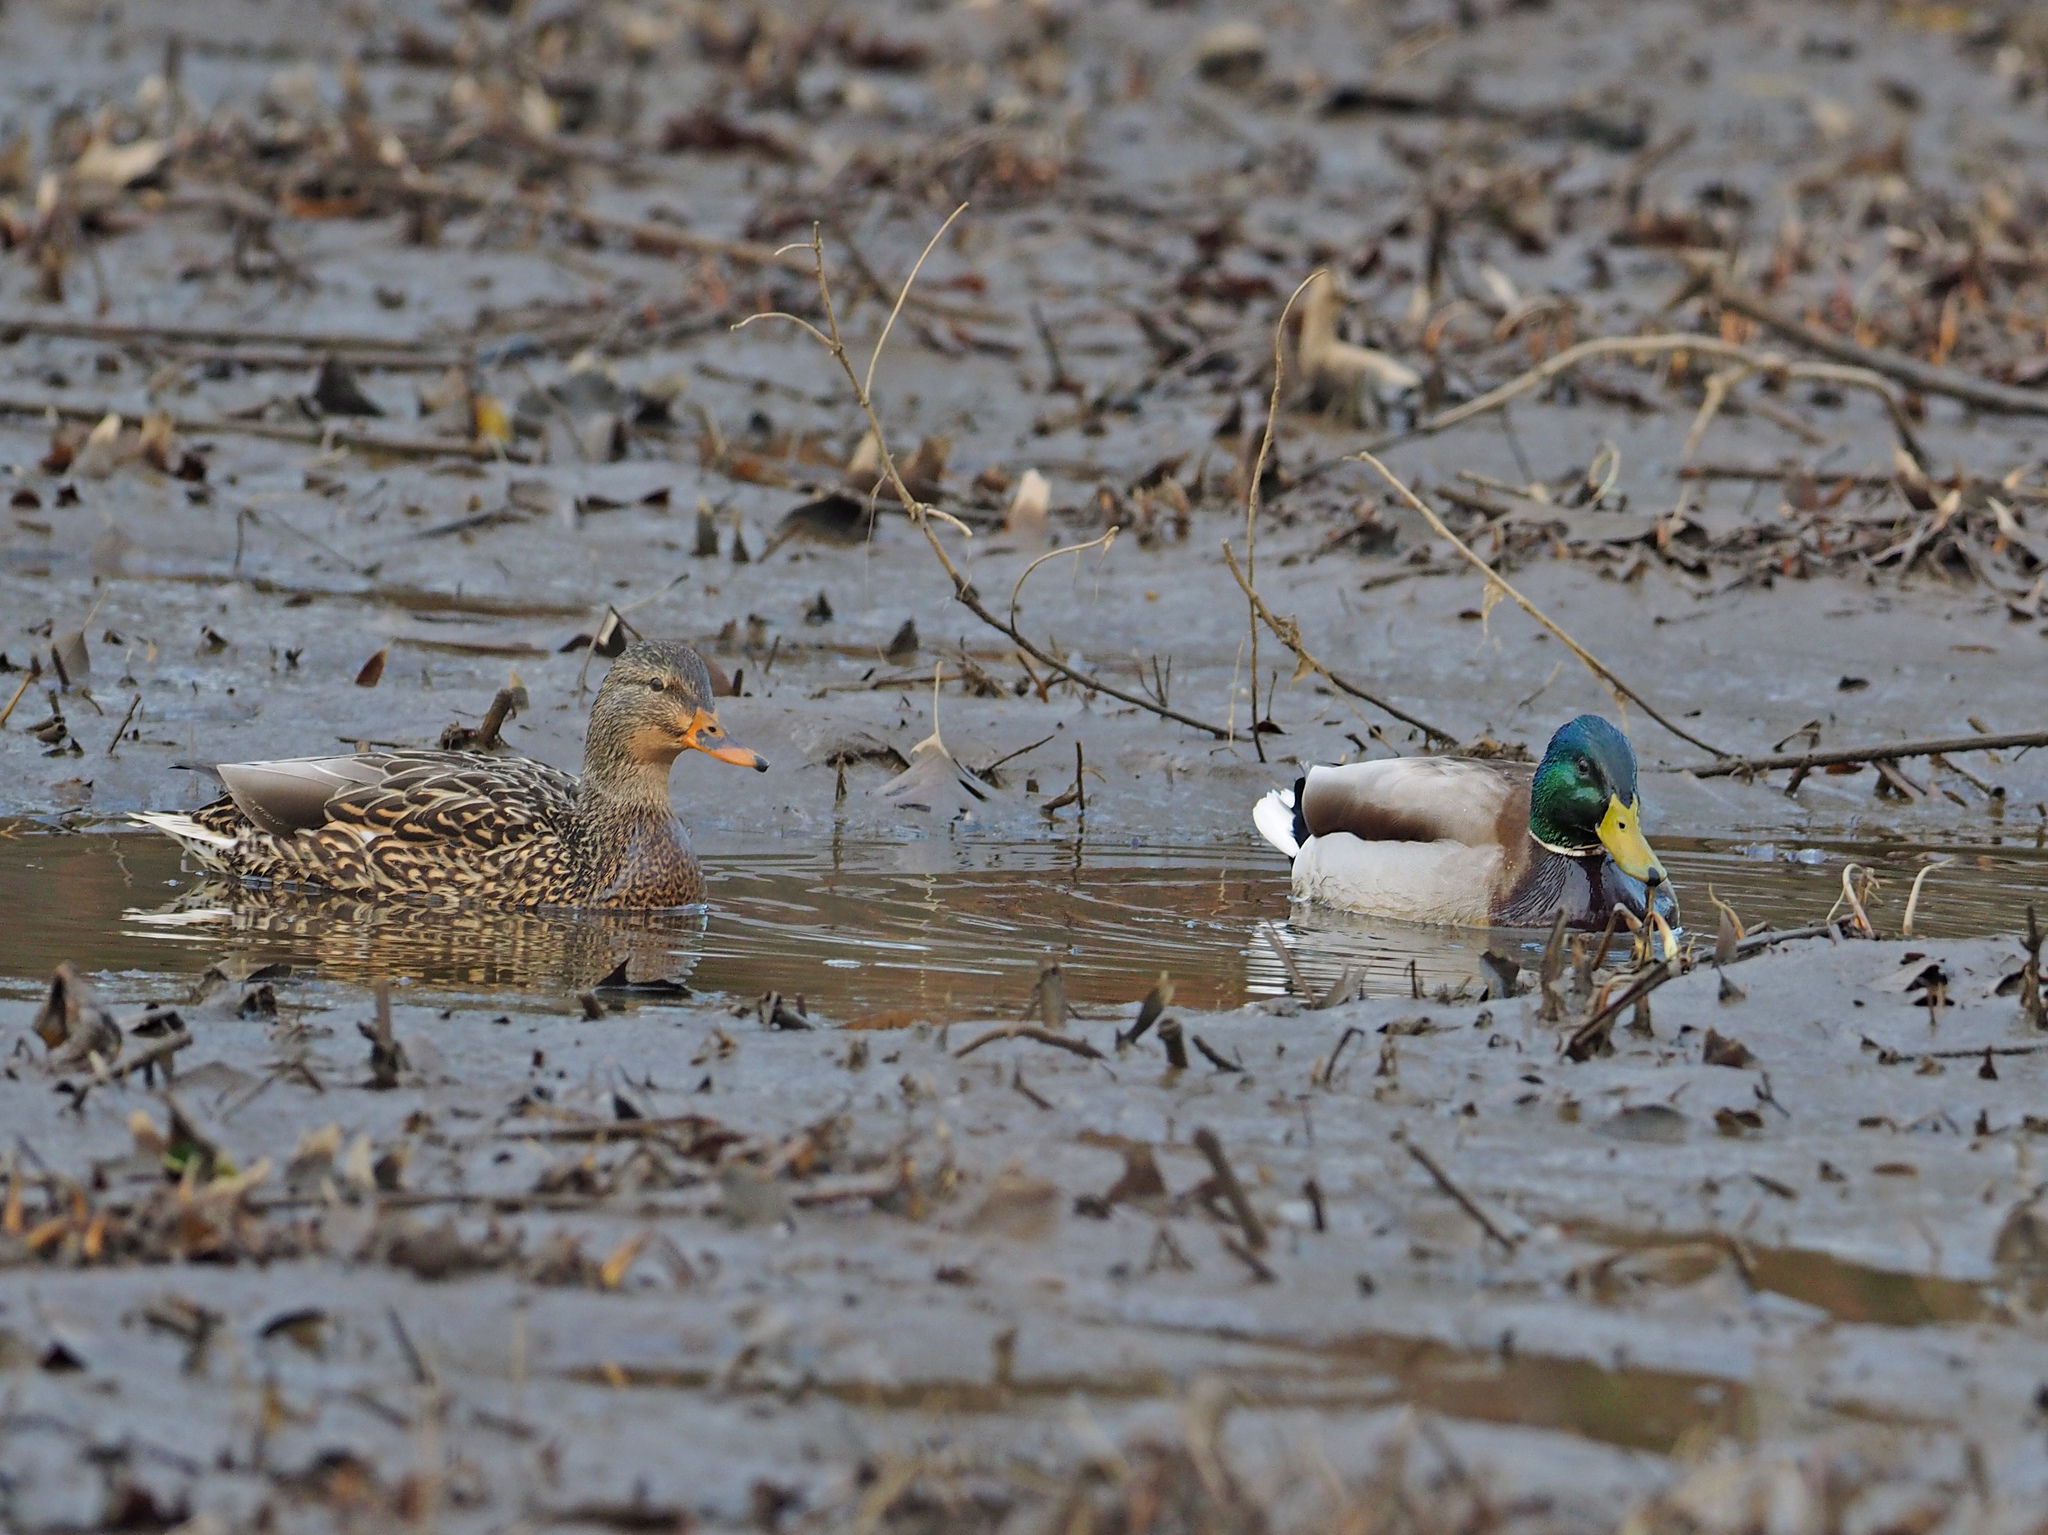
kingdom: Animalia
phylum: Chordata
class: Aves
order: Anseriformes
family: Anatidae
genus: Anas
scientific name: Anas platyrhynchos
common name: Mallard
